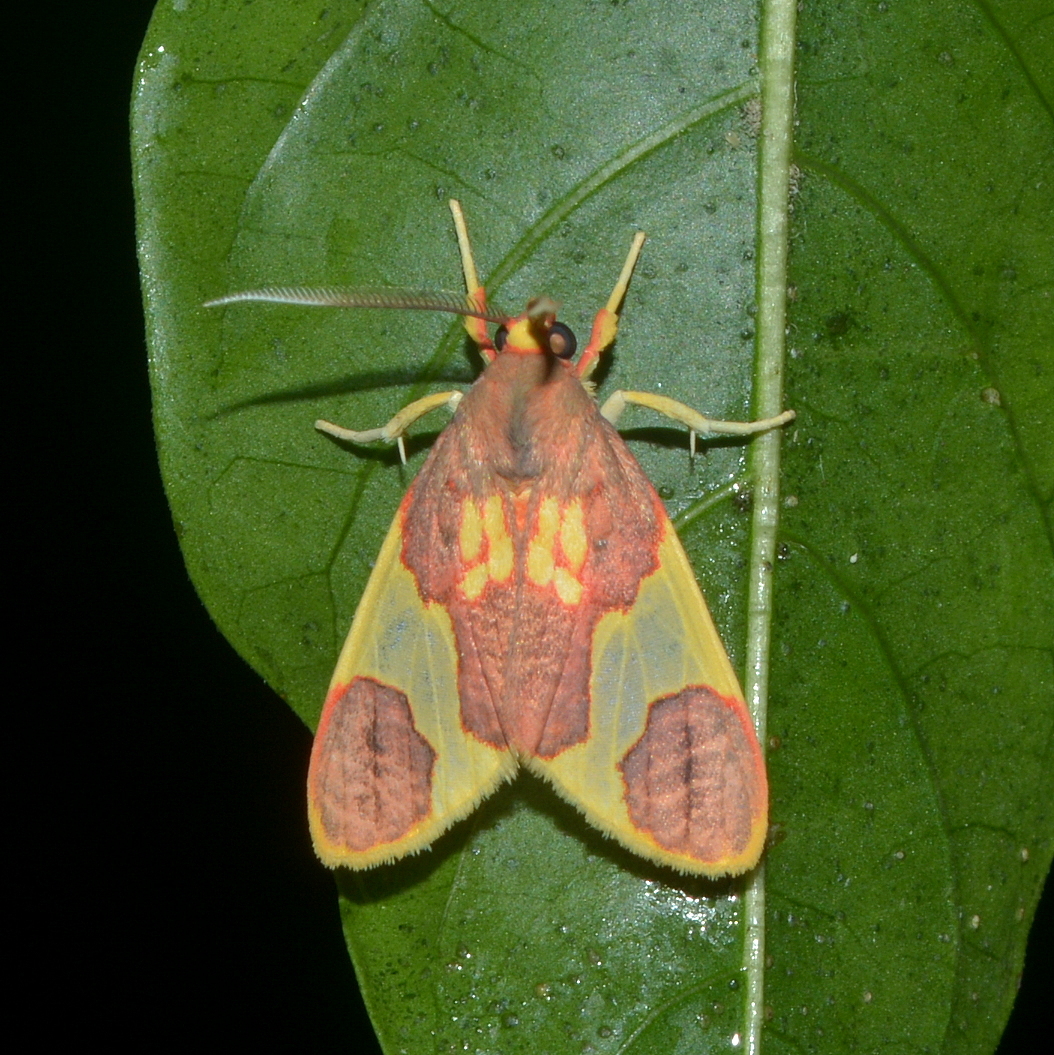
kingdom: Animalia
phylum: Arthropoda
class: Insecta
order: Lepidoptera
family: Erebidae
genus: Trichromia
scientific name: Trichromia
